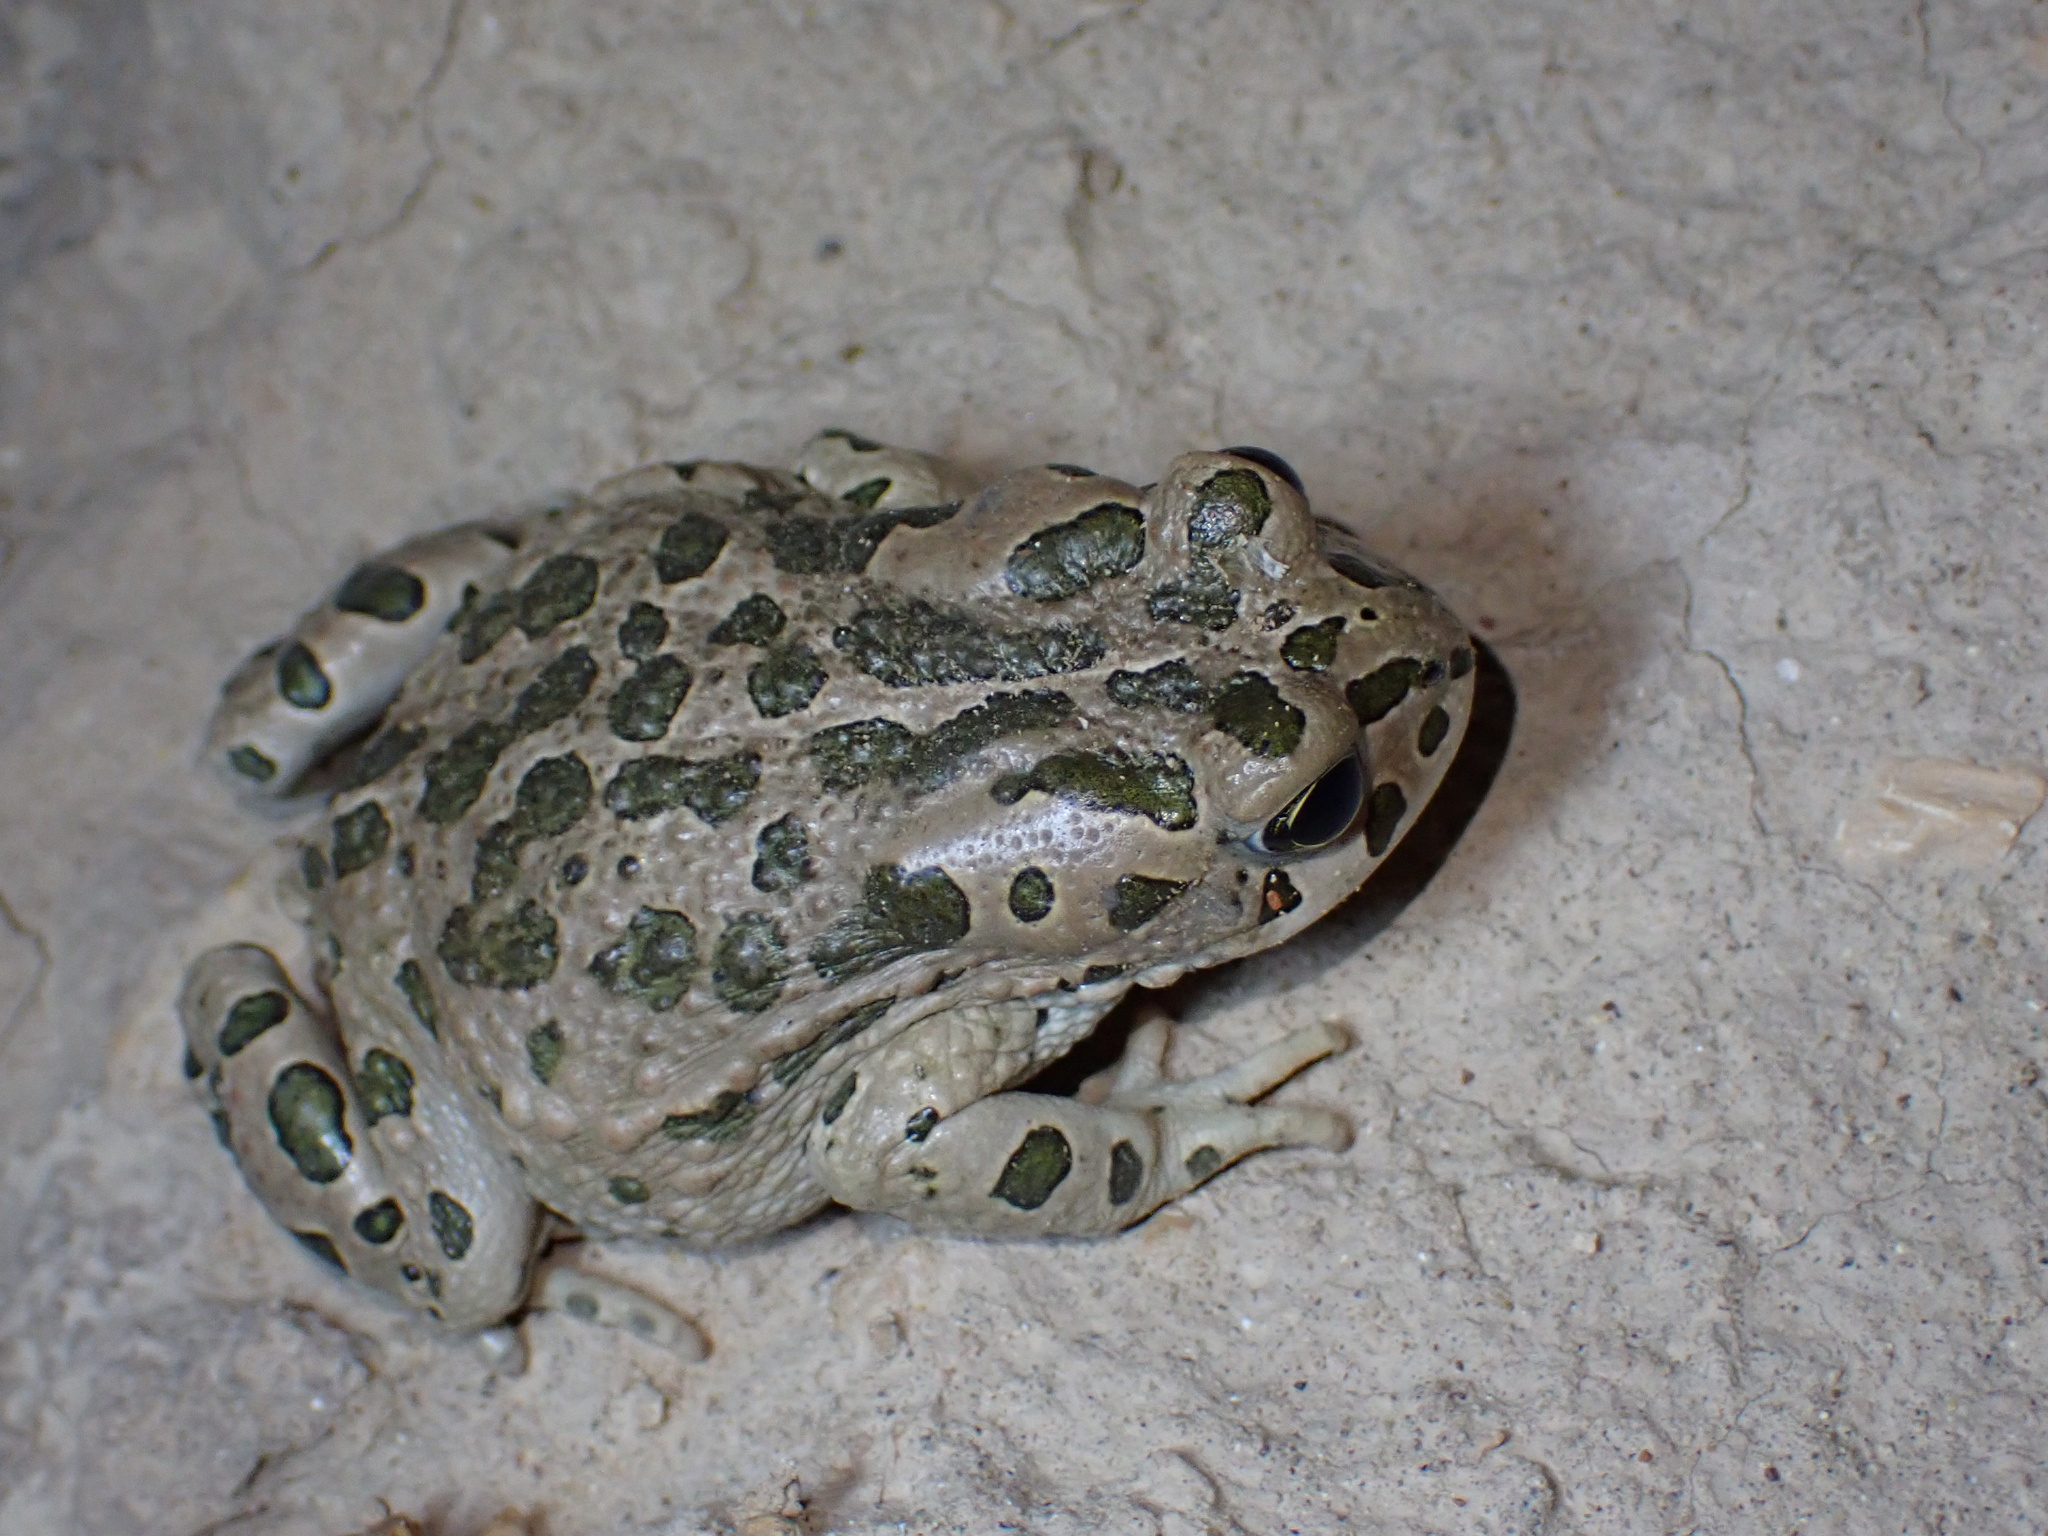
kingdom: Animalia
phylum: Chordata
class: Amphibia
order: Anura
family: Bufonidae
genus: Bufotes
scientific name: Bufotes viridis
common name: European green toad
